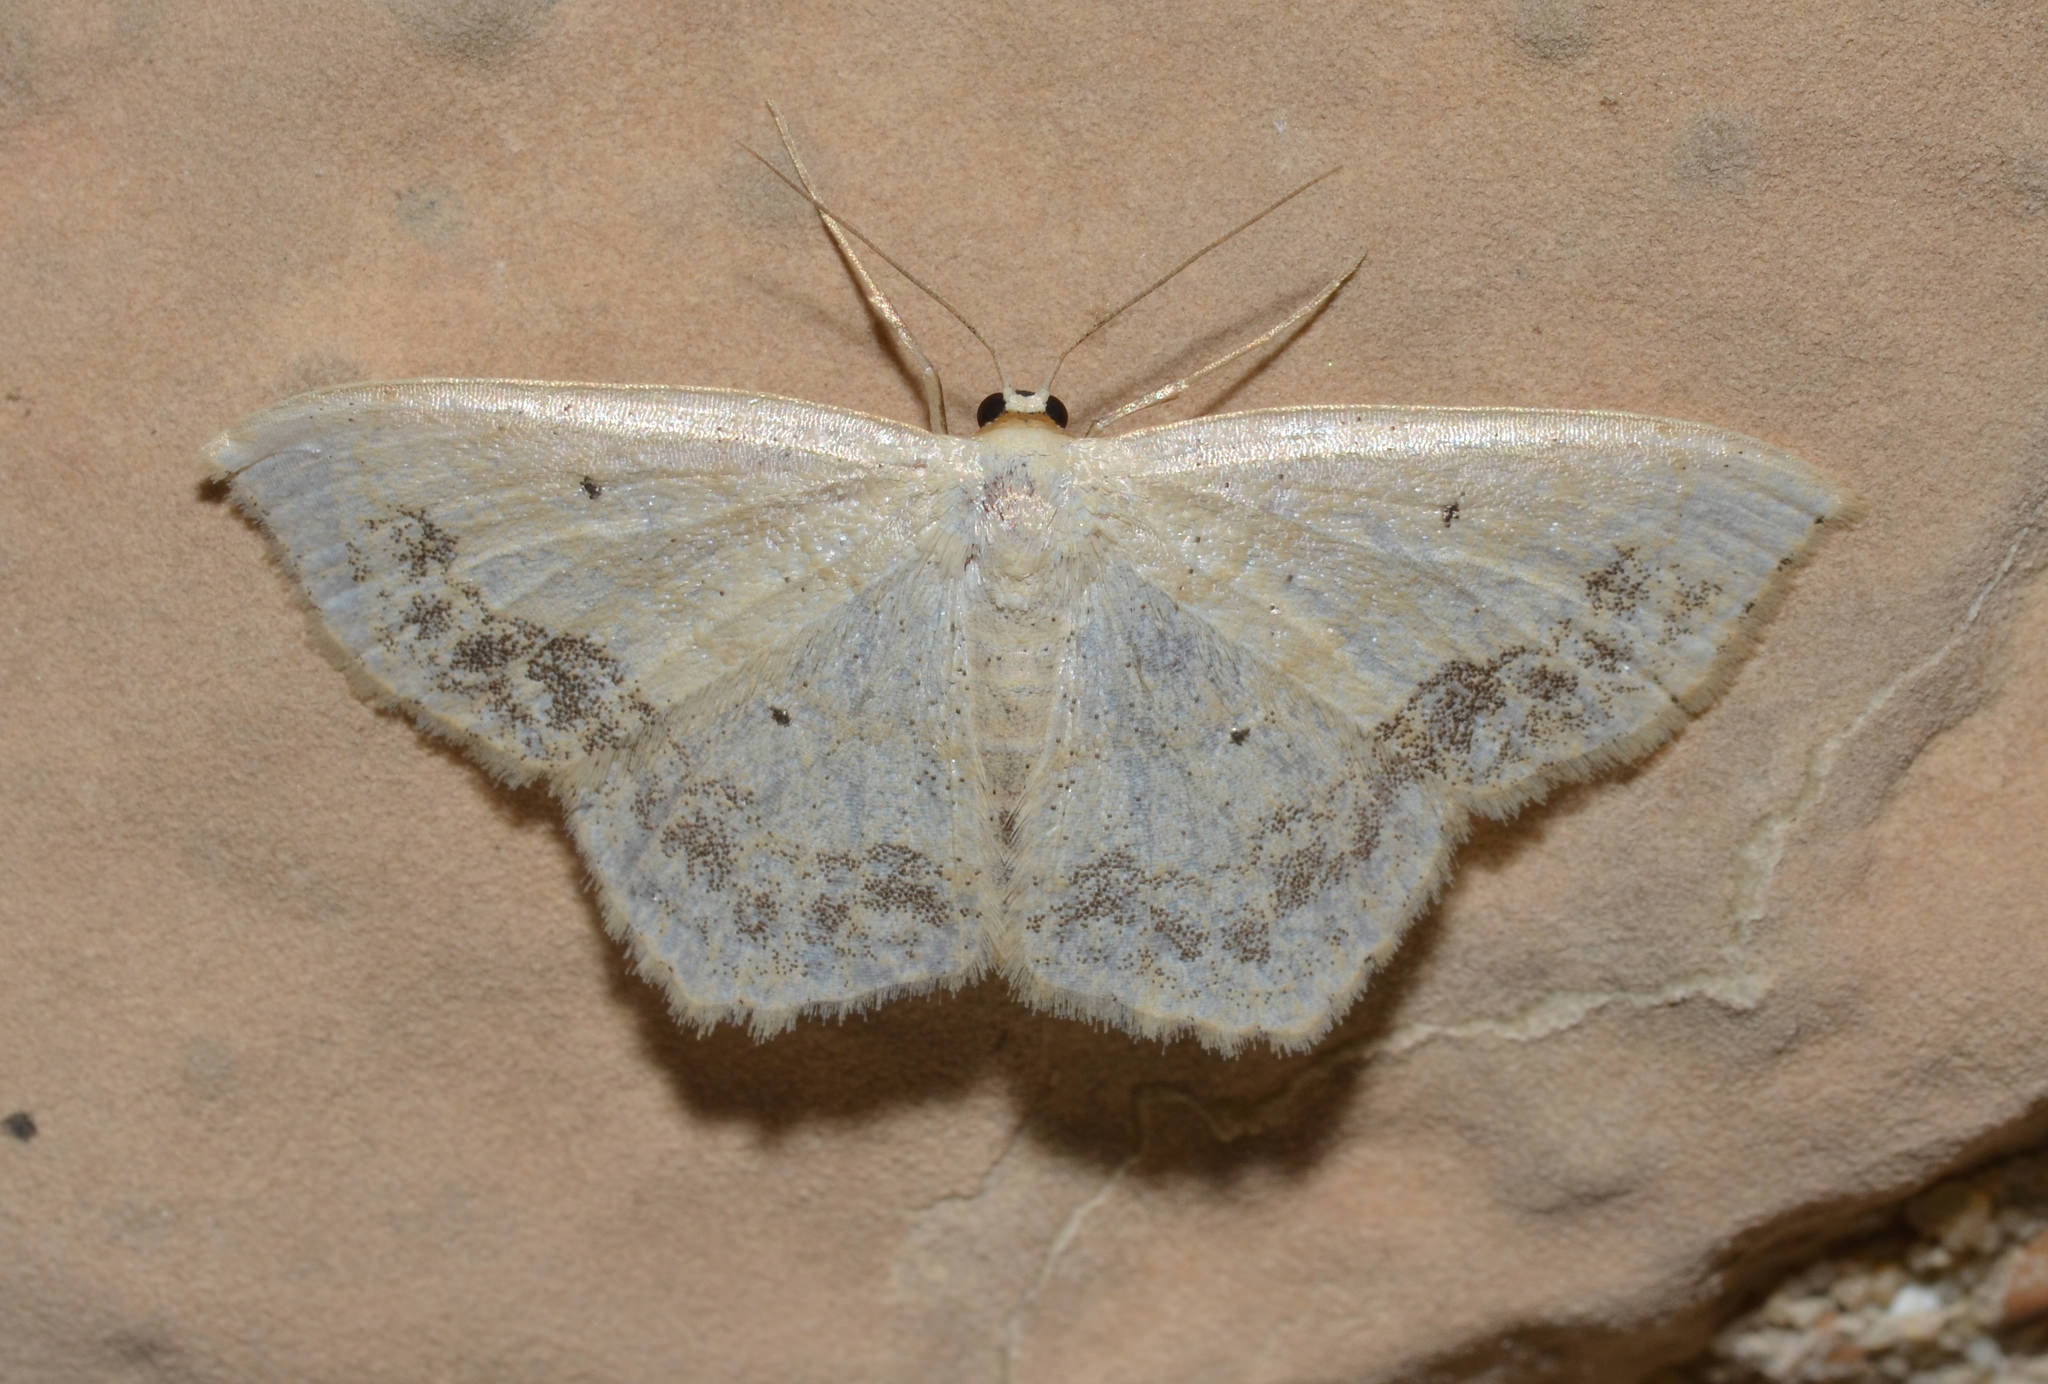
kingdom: Animalia
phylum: Arthropoda
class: Insecta
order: Lepidoptera
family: Geometridae
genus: Scopula
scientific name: Scopula limboundata
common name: Large lace border
